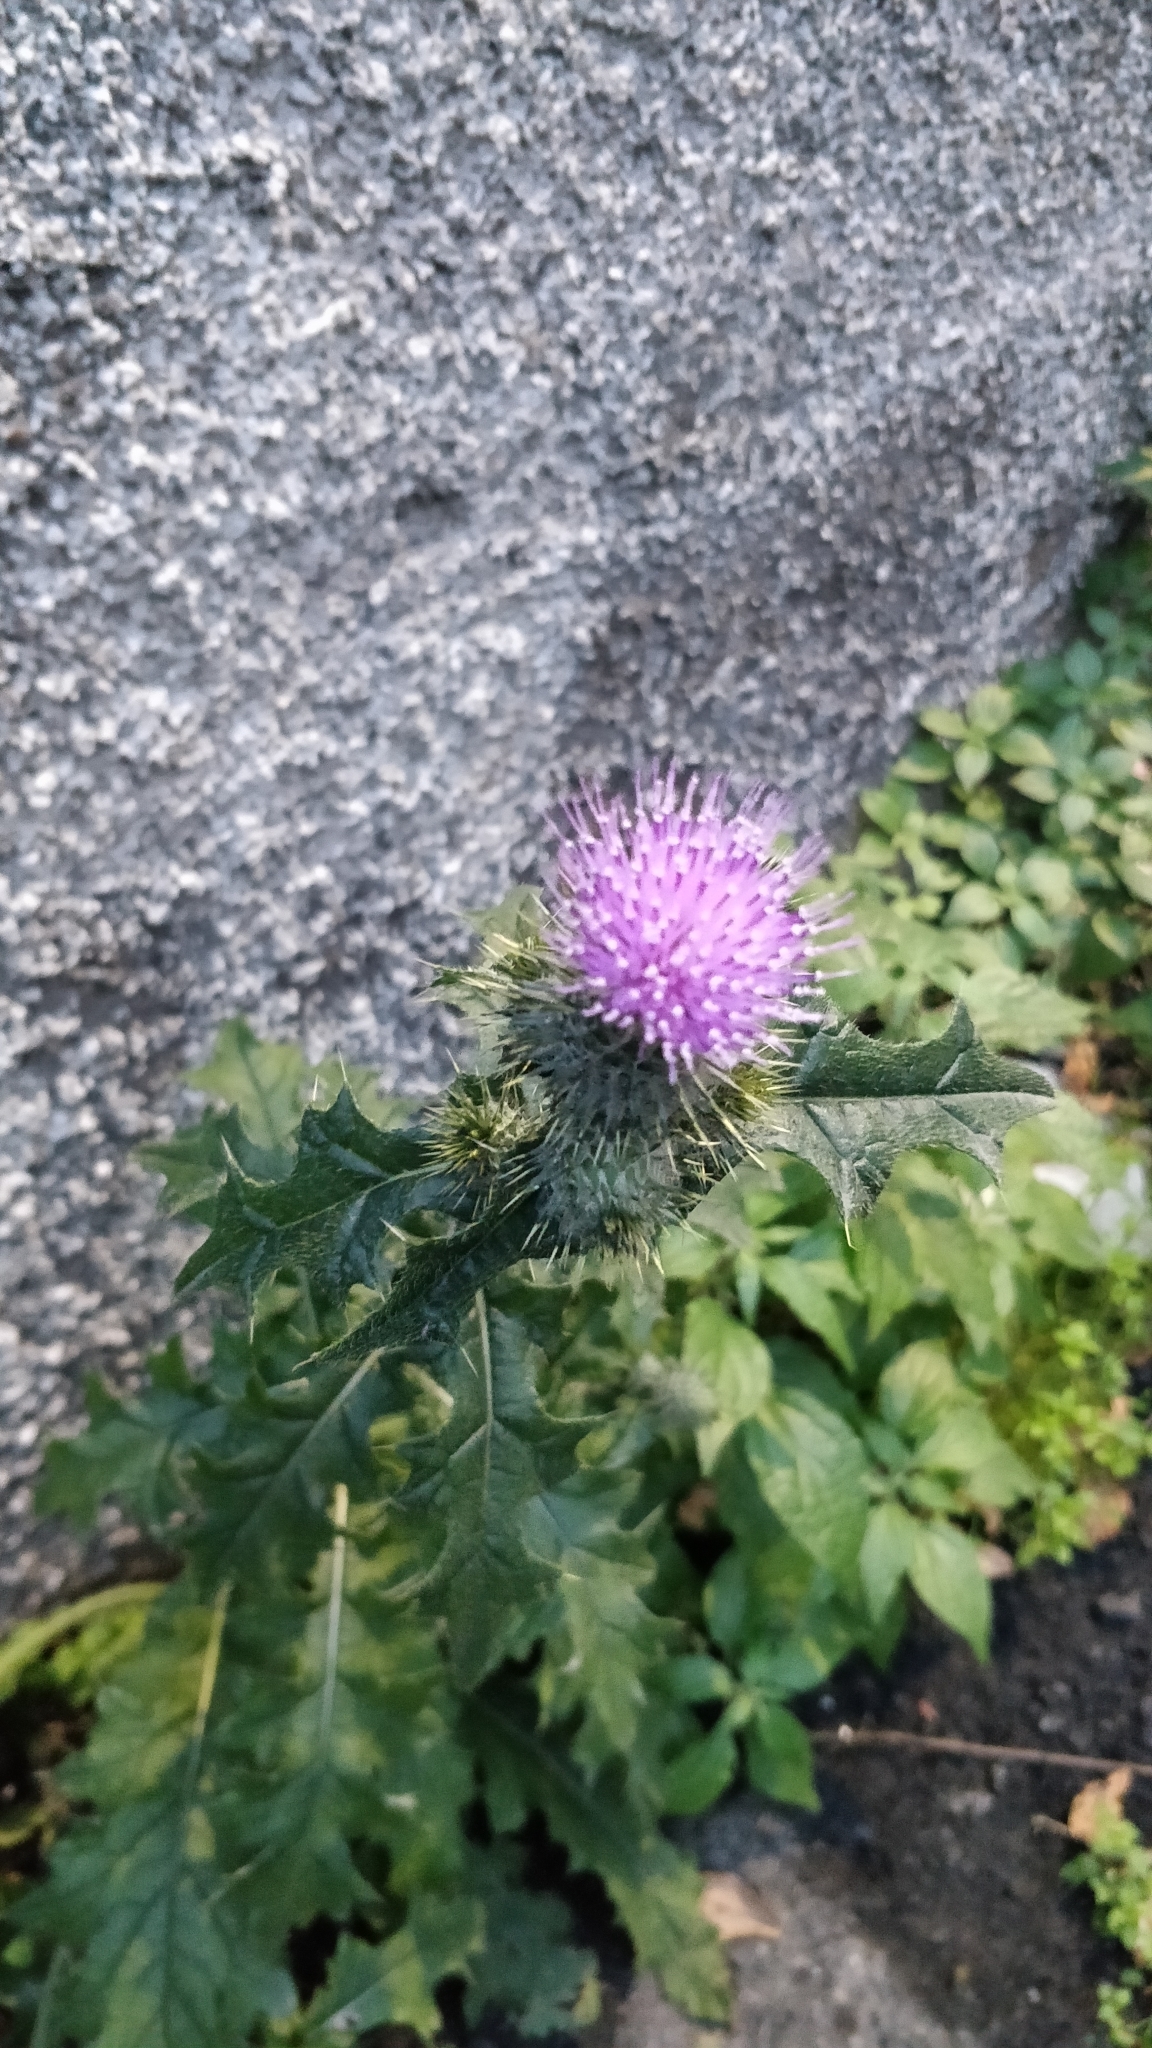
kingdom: Plantae
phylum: Tracheophyta
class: Magnoliopsida
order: Asterales
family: Asteraceae
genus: Cirsium
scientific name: Cirsium vulgare
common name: Bull thistle
